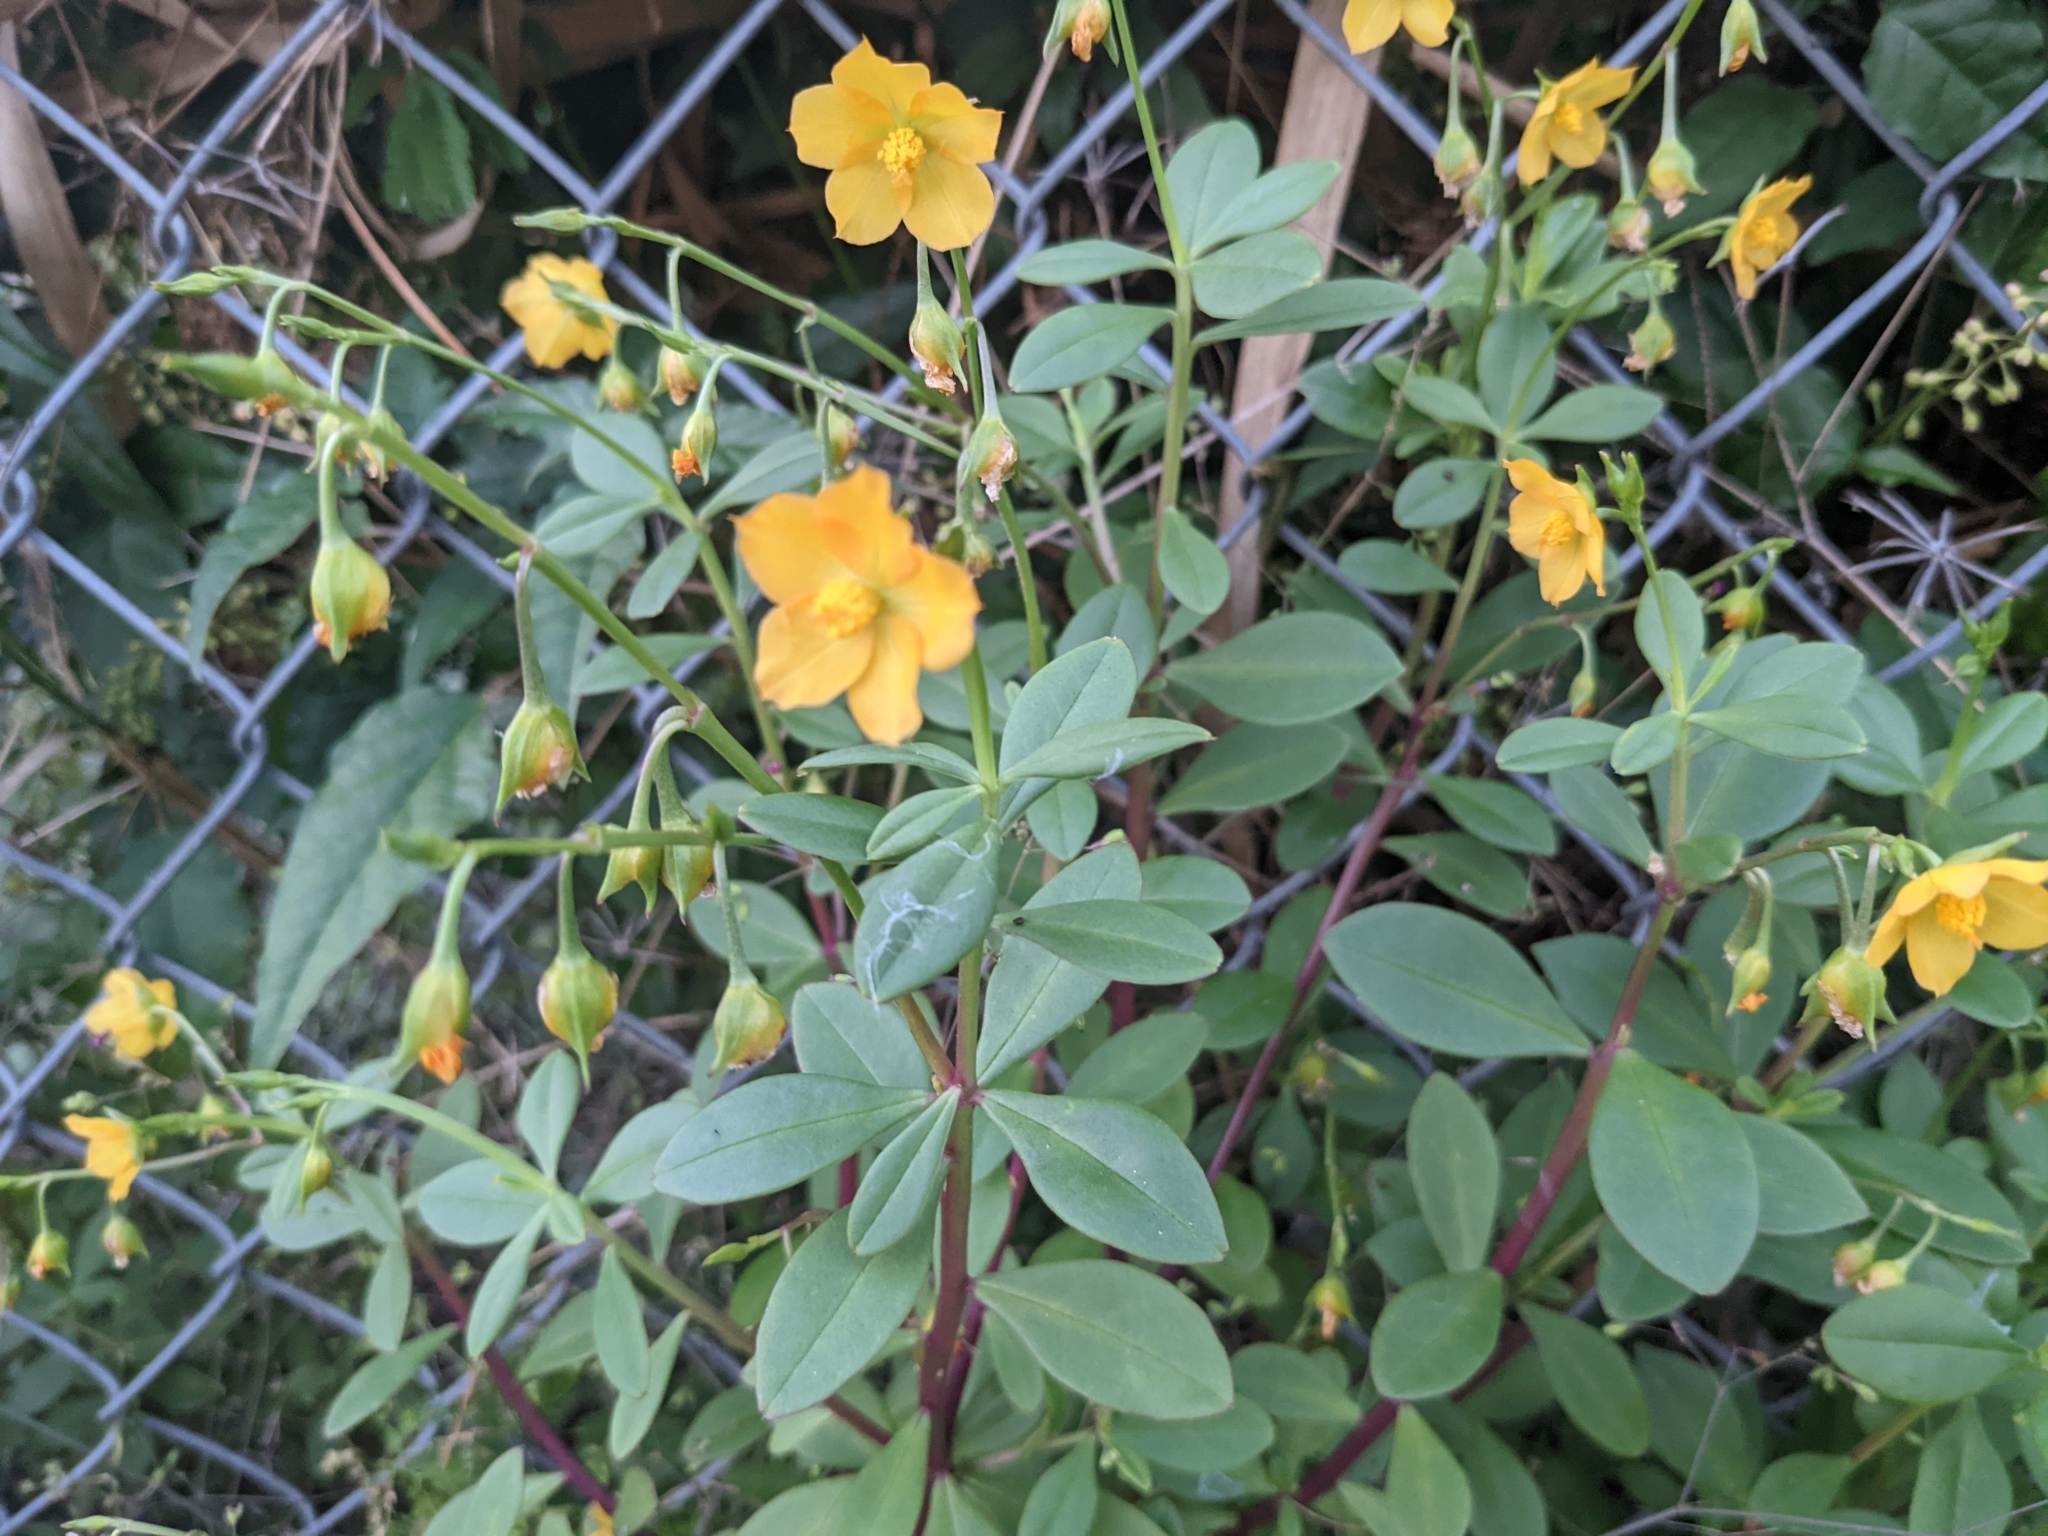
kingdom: Plantae
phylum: Tracheophyta
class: Magnoliopsida
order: Caryophyllales
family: Talinaceae
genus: Talinum
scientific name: Talinum fruticosum
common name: Verdolaga-francesa
